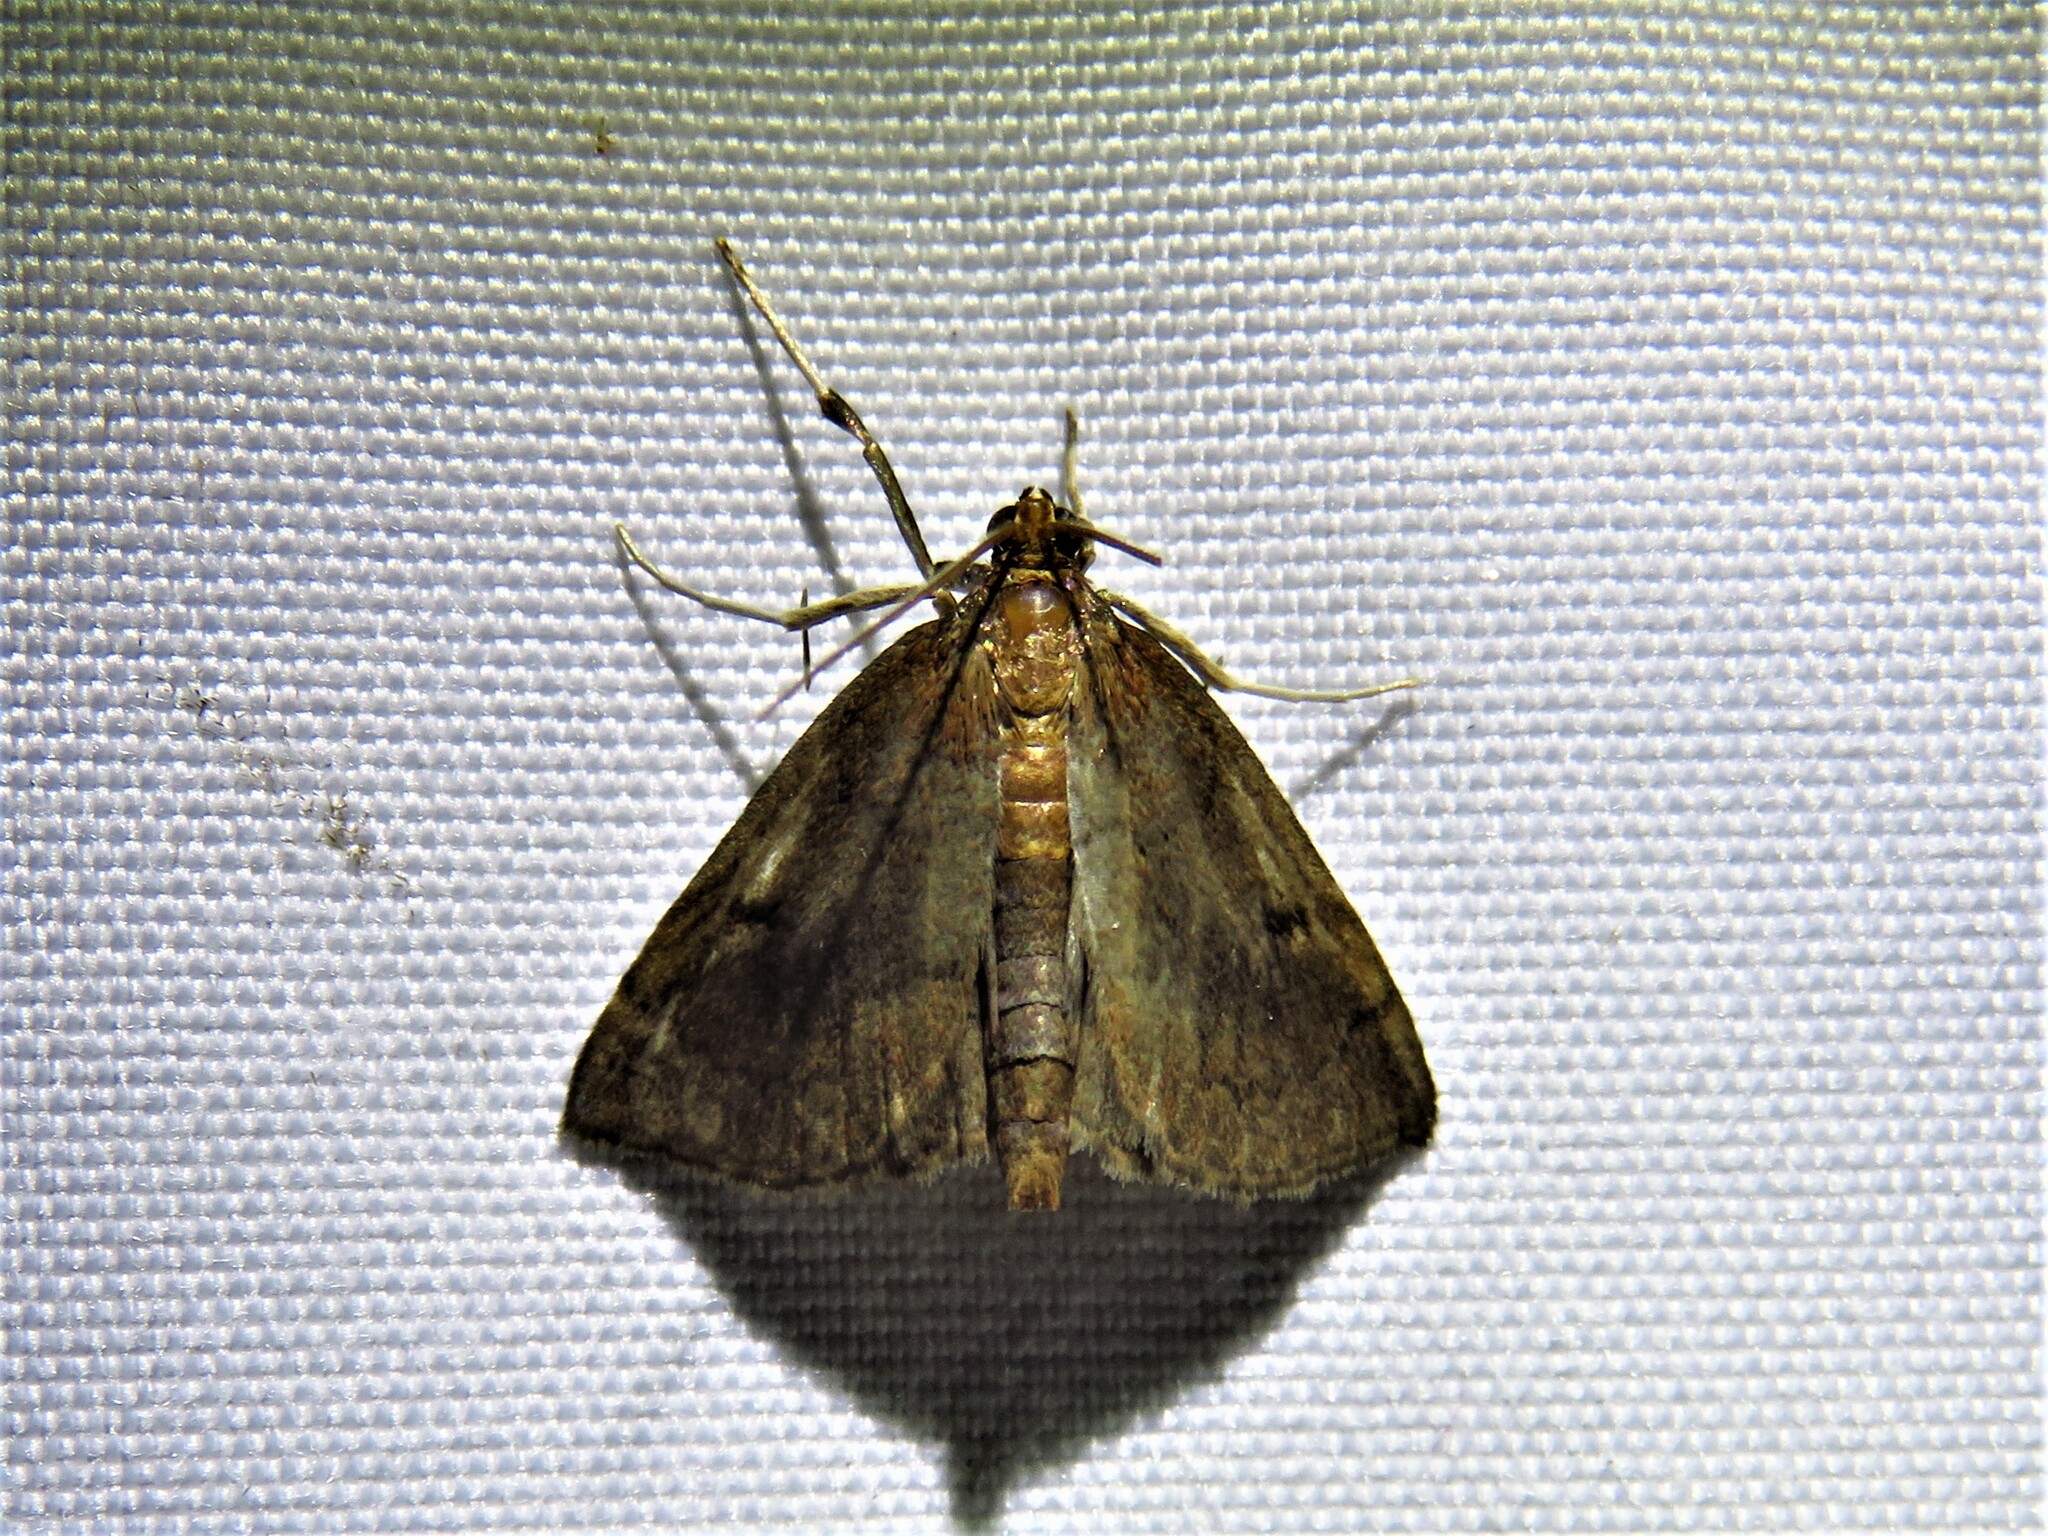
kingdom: Animalia
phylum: Arthropoda
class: Insecta
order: Lepidoptera
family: Crambidae
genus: Fumibotys
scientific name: Fumibotys fumalis
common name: Mint root borer moth
